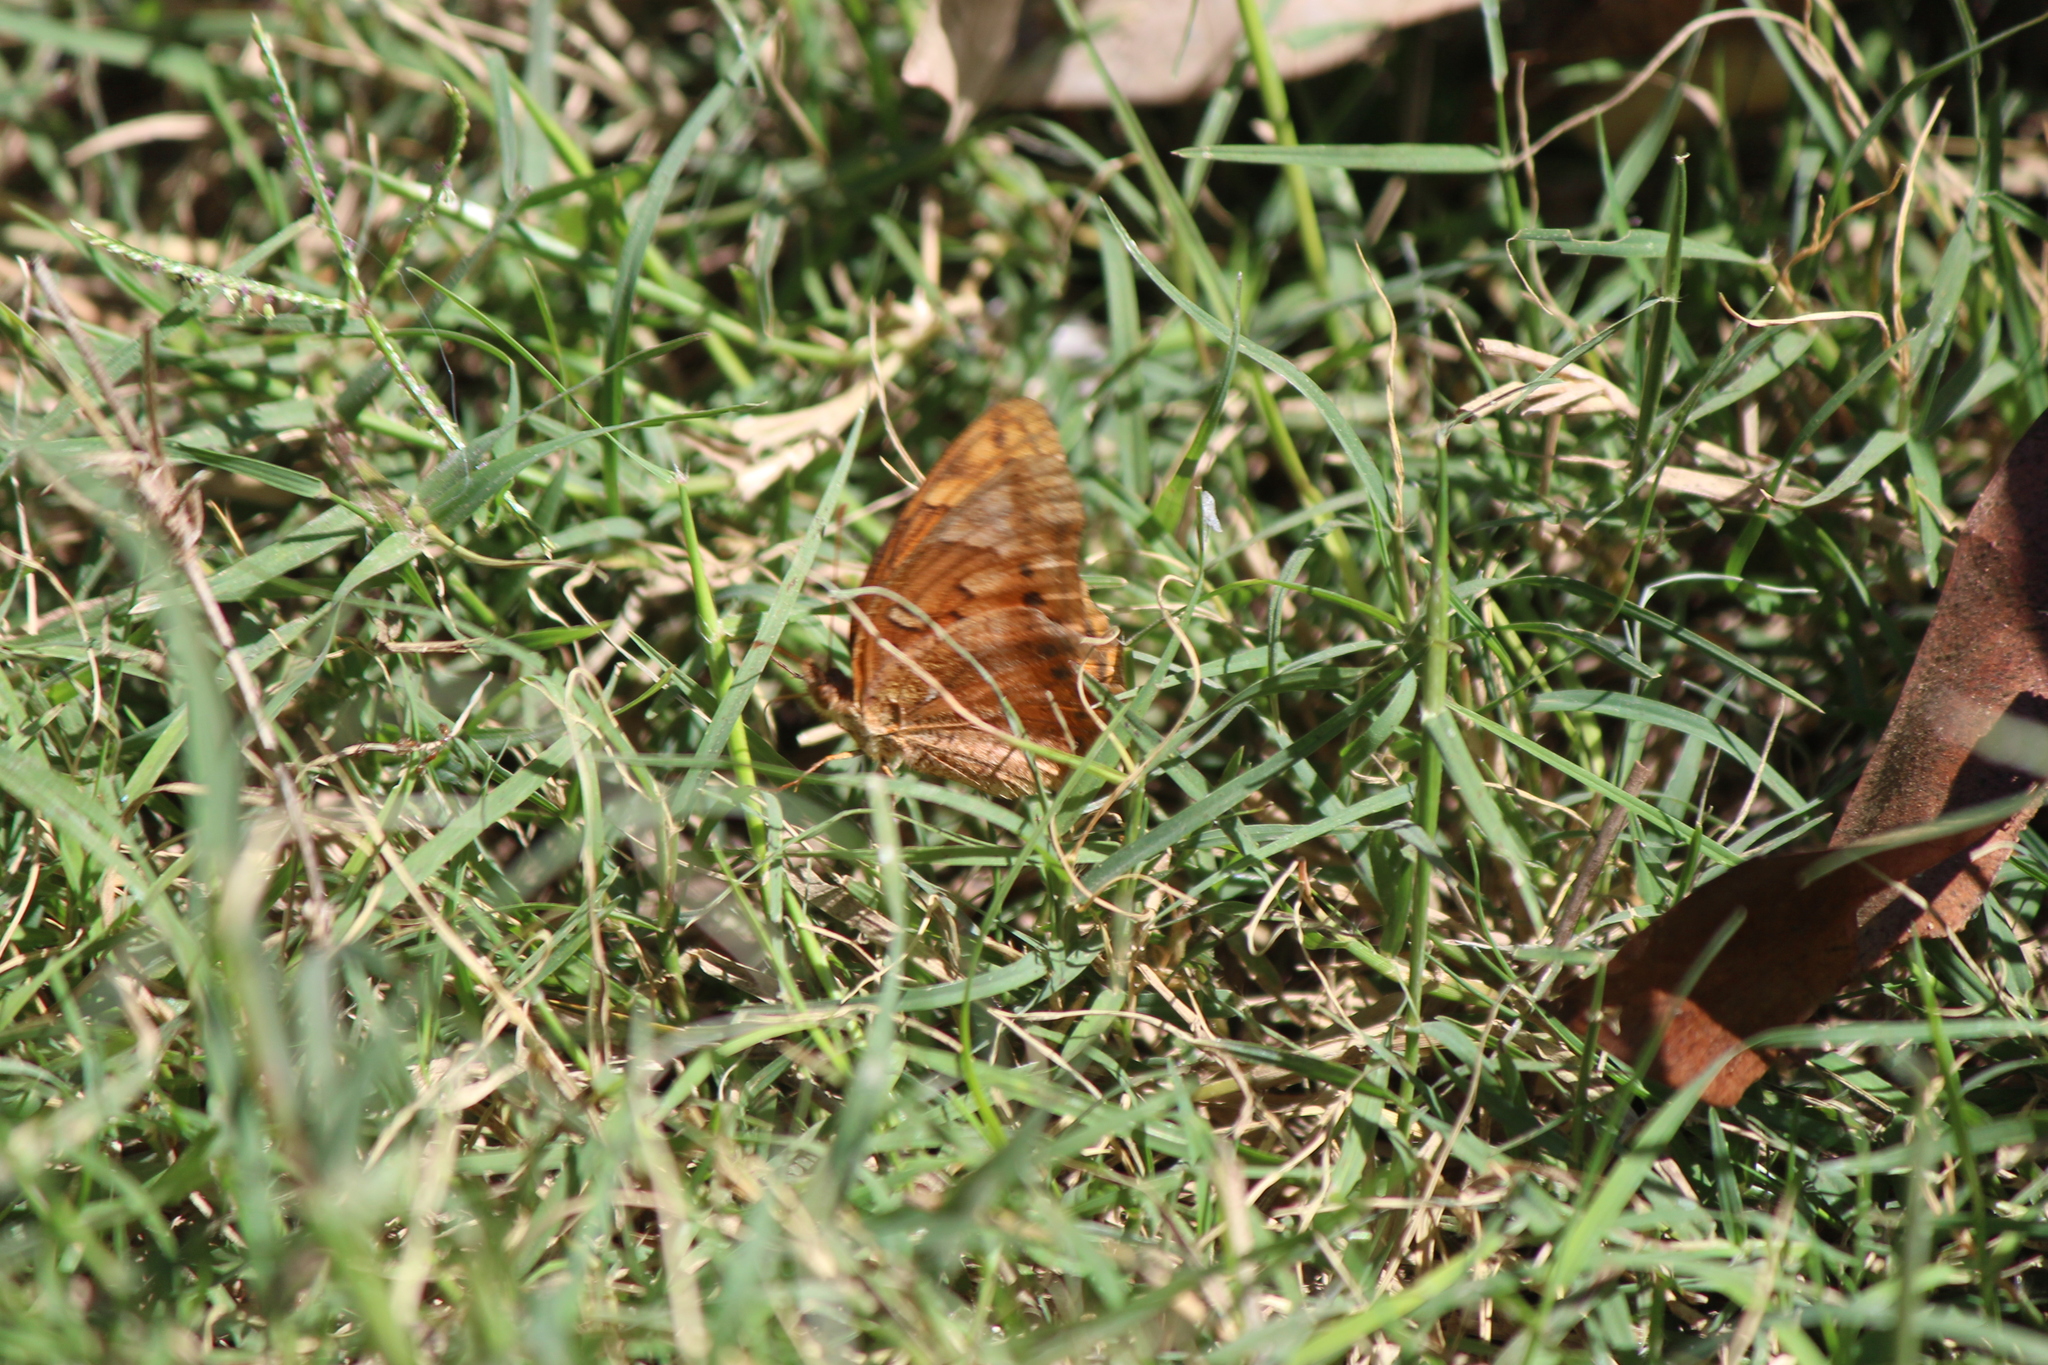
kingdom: Animalia
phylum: Arthropoda
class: Insecta
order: Lepidoptera
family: Nymphalidae
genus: Euptoieta
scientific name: Euptoieta hegesia
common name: Mexican fritillary
